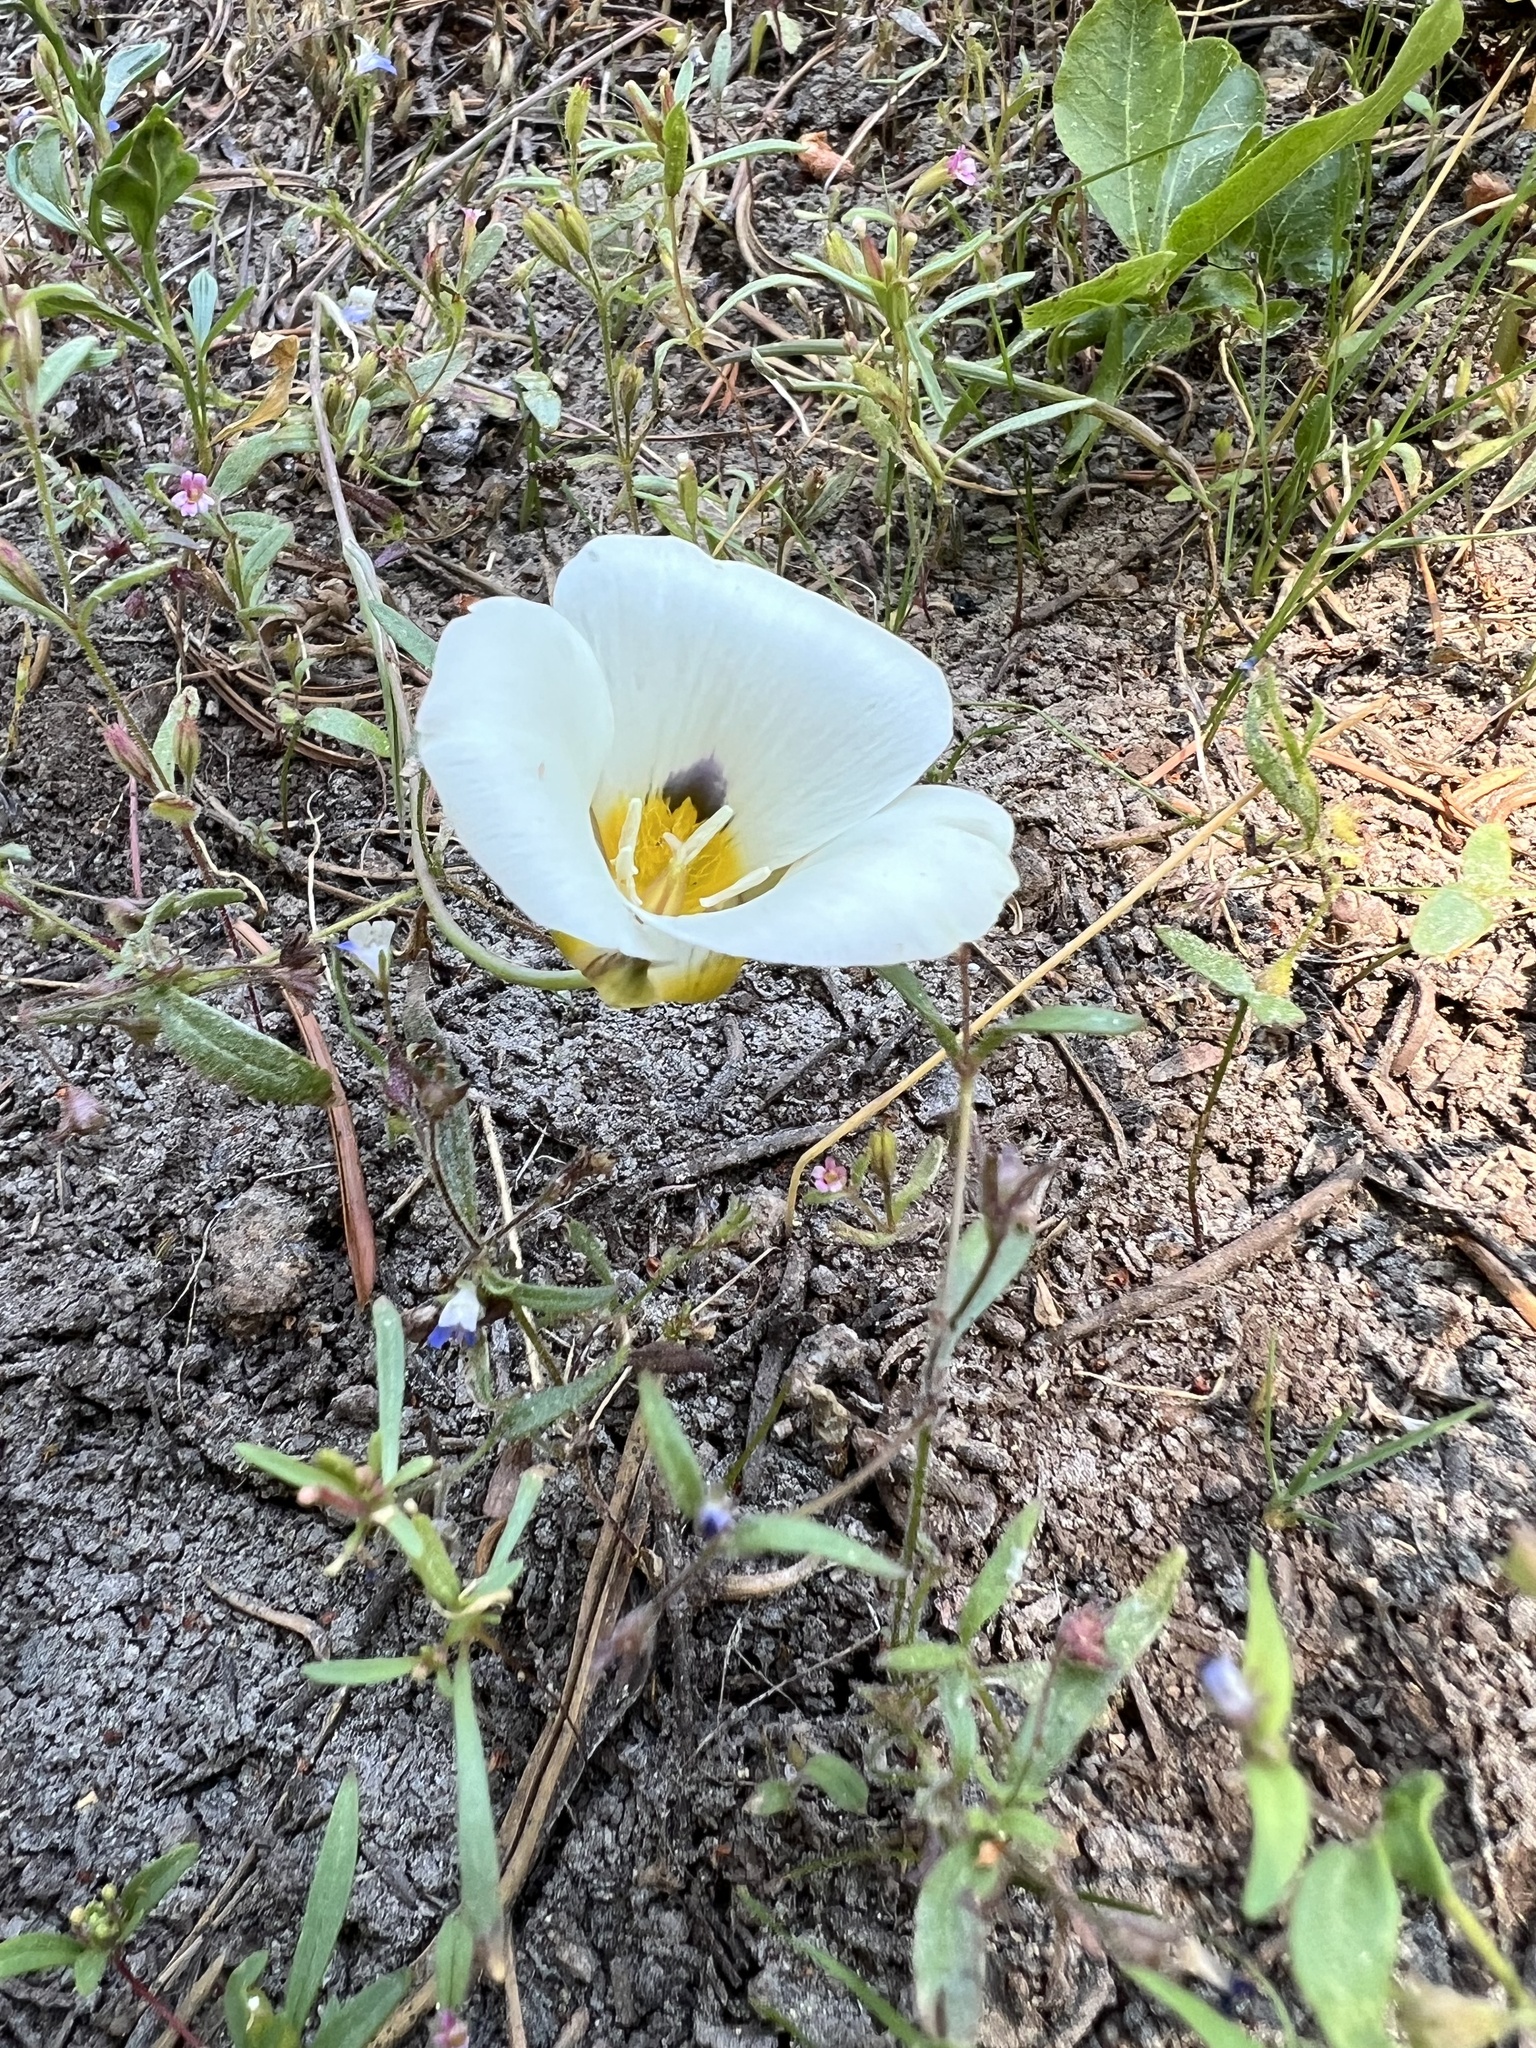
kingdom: Plantae
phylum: Tracheophyta
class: Liliopsida
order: Liliales
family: Liliaceae
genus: Calochortus
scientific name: Calochortus leichtlinii
